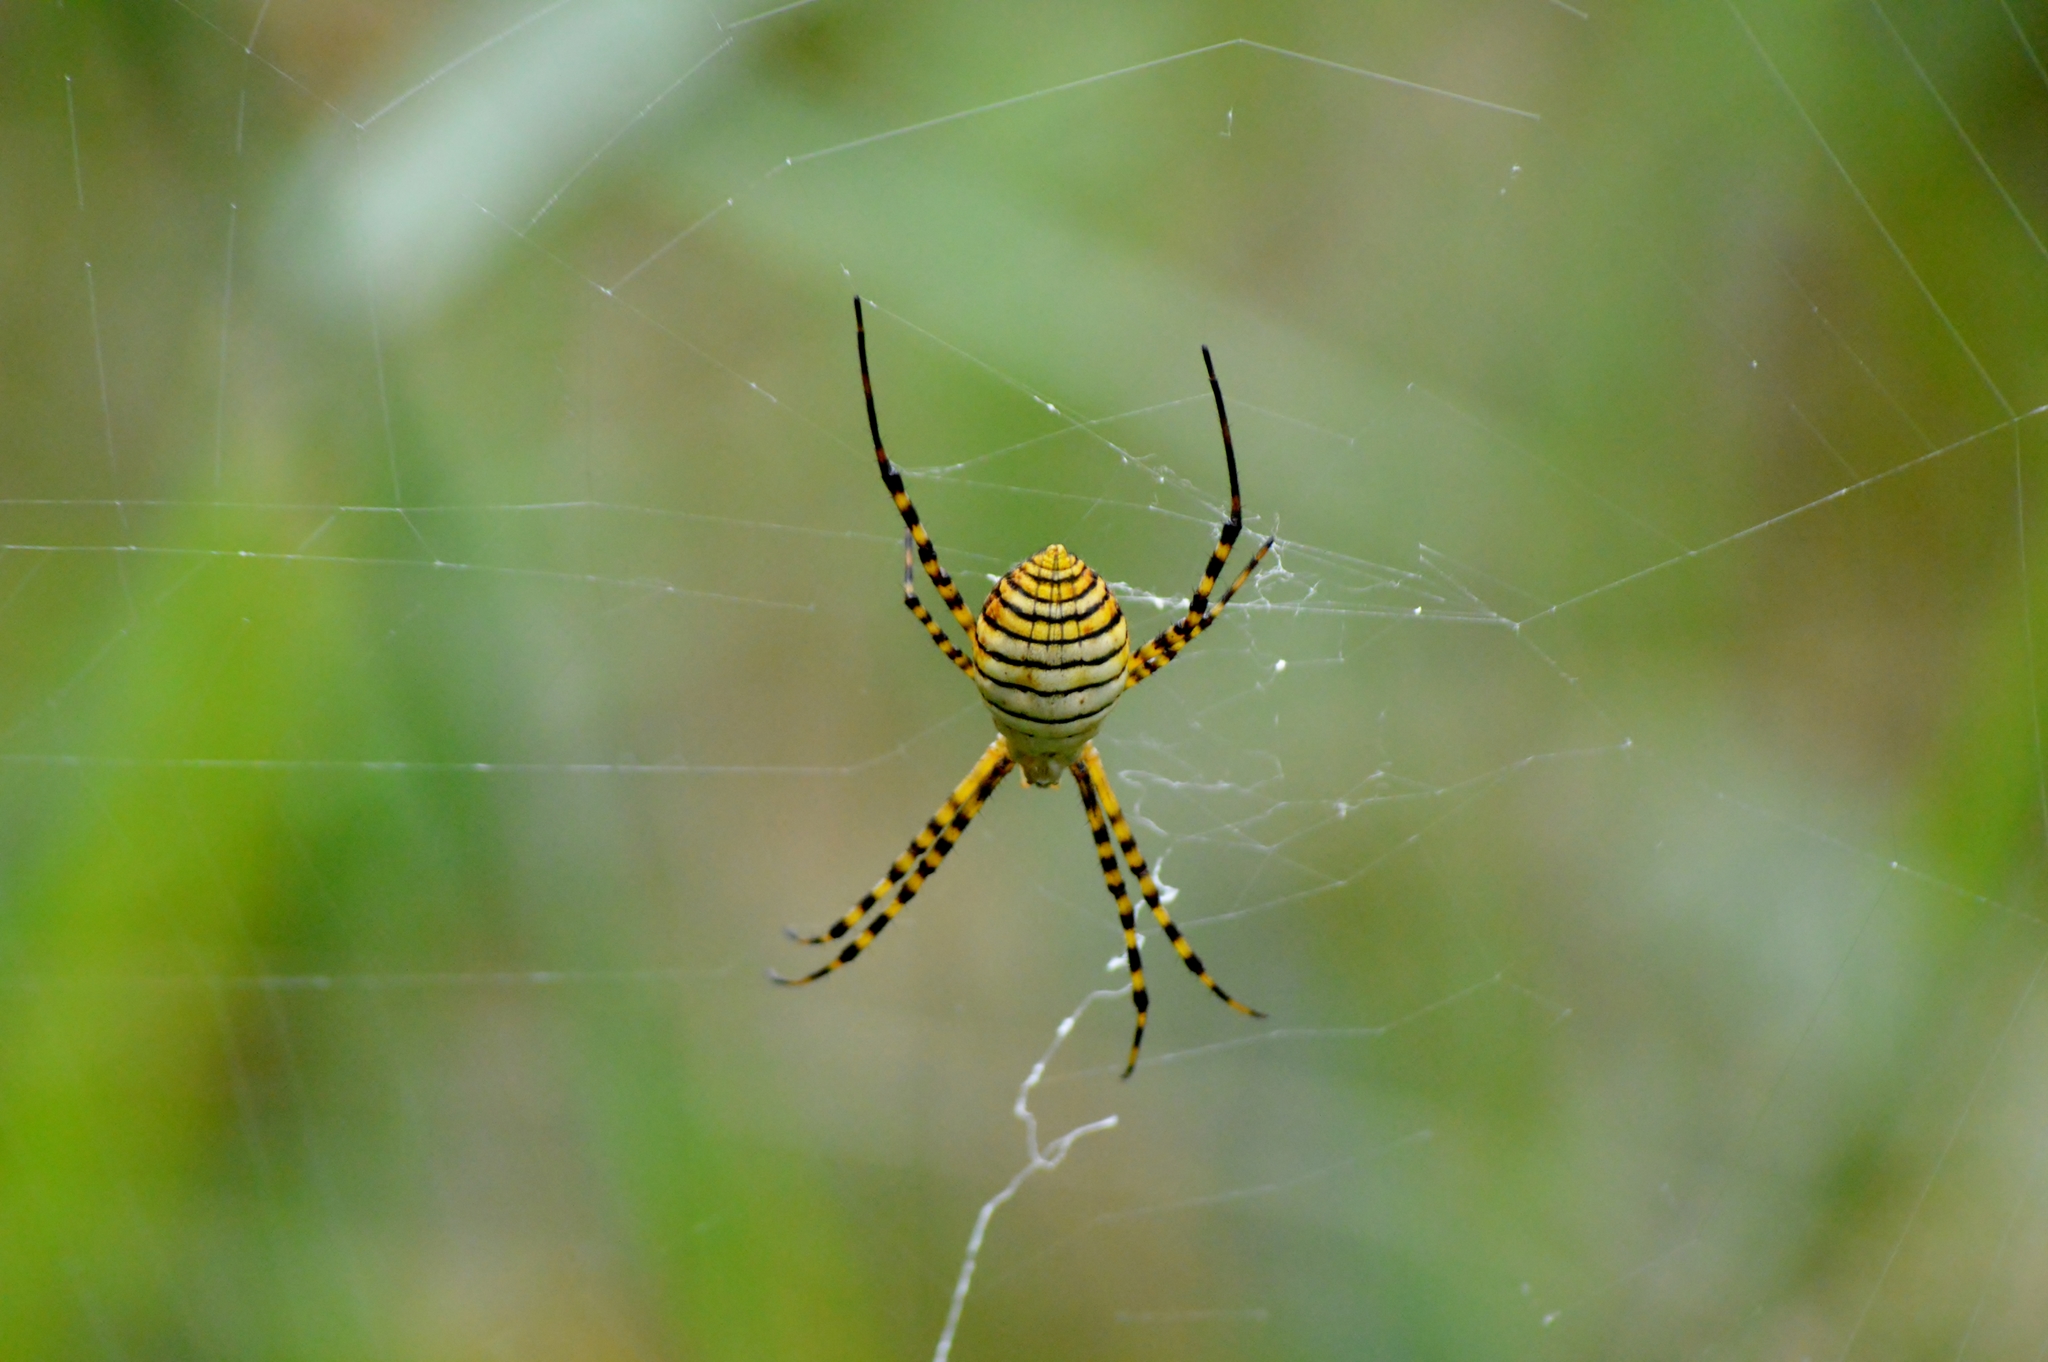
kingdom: Animalia
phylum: Arthropoda
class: Arachnida
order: Araneae
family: Araneidae
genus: Argiope
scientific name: Argiope trifasciata
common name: Banded garden spider
